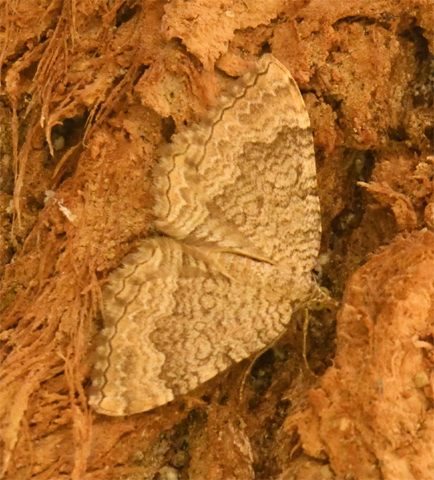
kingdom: Animalia
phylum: Arthropoda
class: Insecta
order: Lepidoptera
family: Geometridae
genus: Camptogramma
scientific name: Camptogramma bilineata
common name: Yellow shell
